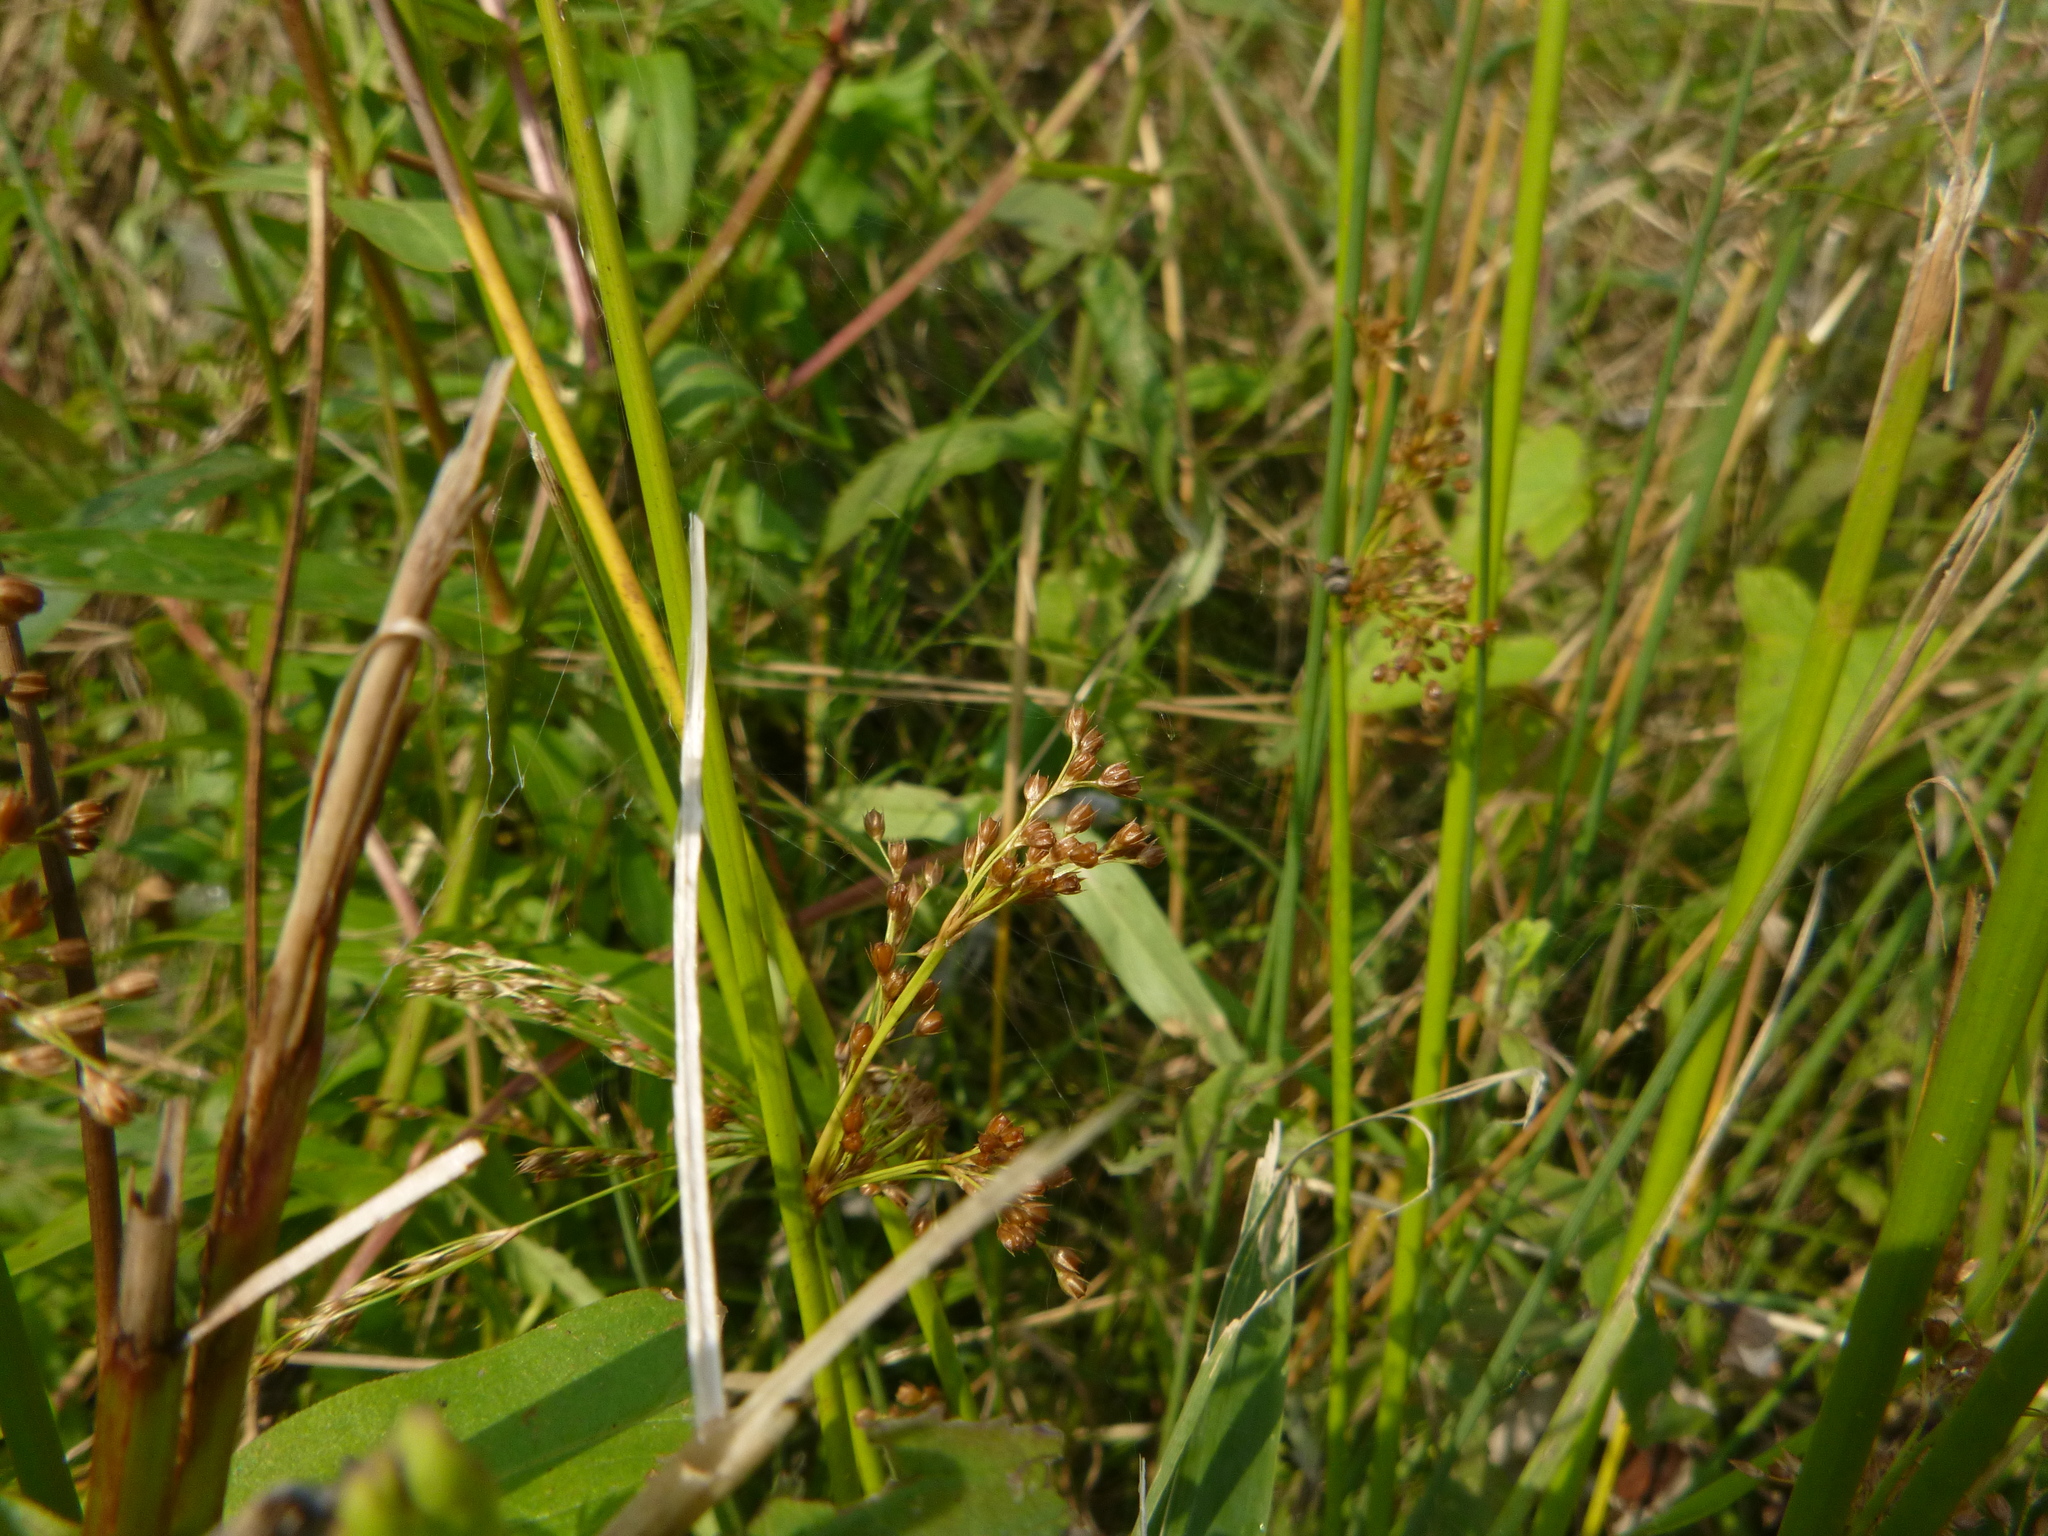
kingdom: Plantae
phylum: Tracheophyta
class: Liliopsida
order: Poales
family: Juncaceae
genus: Juncus
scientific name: Juncus effusus
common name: Soft rush
